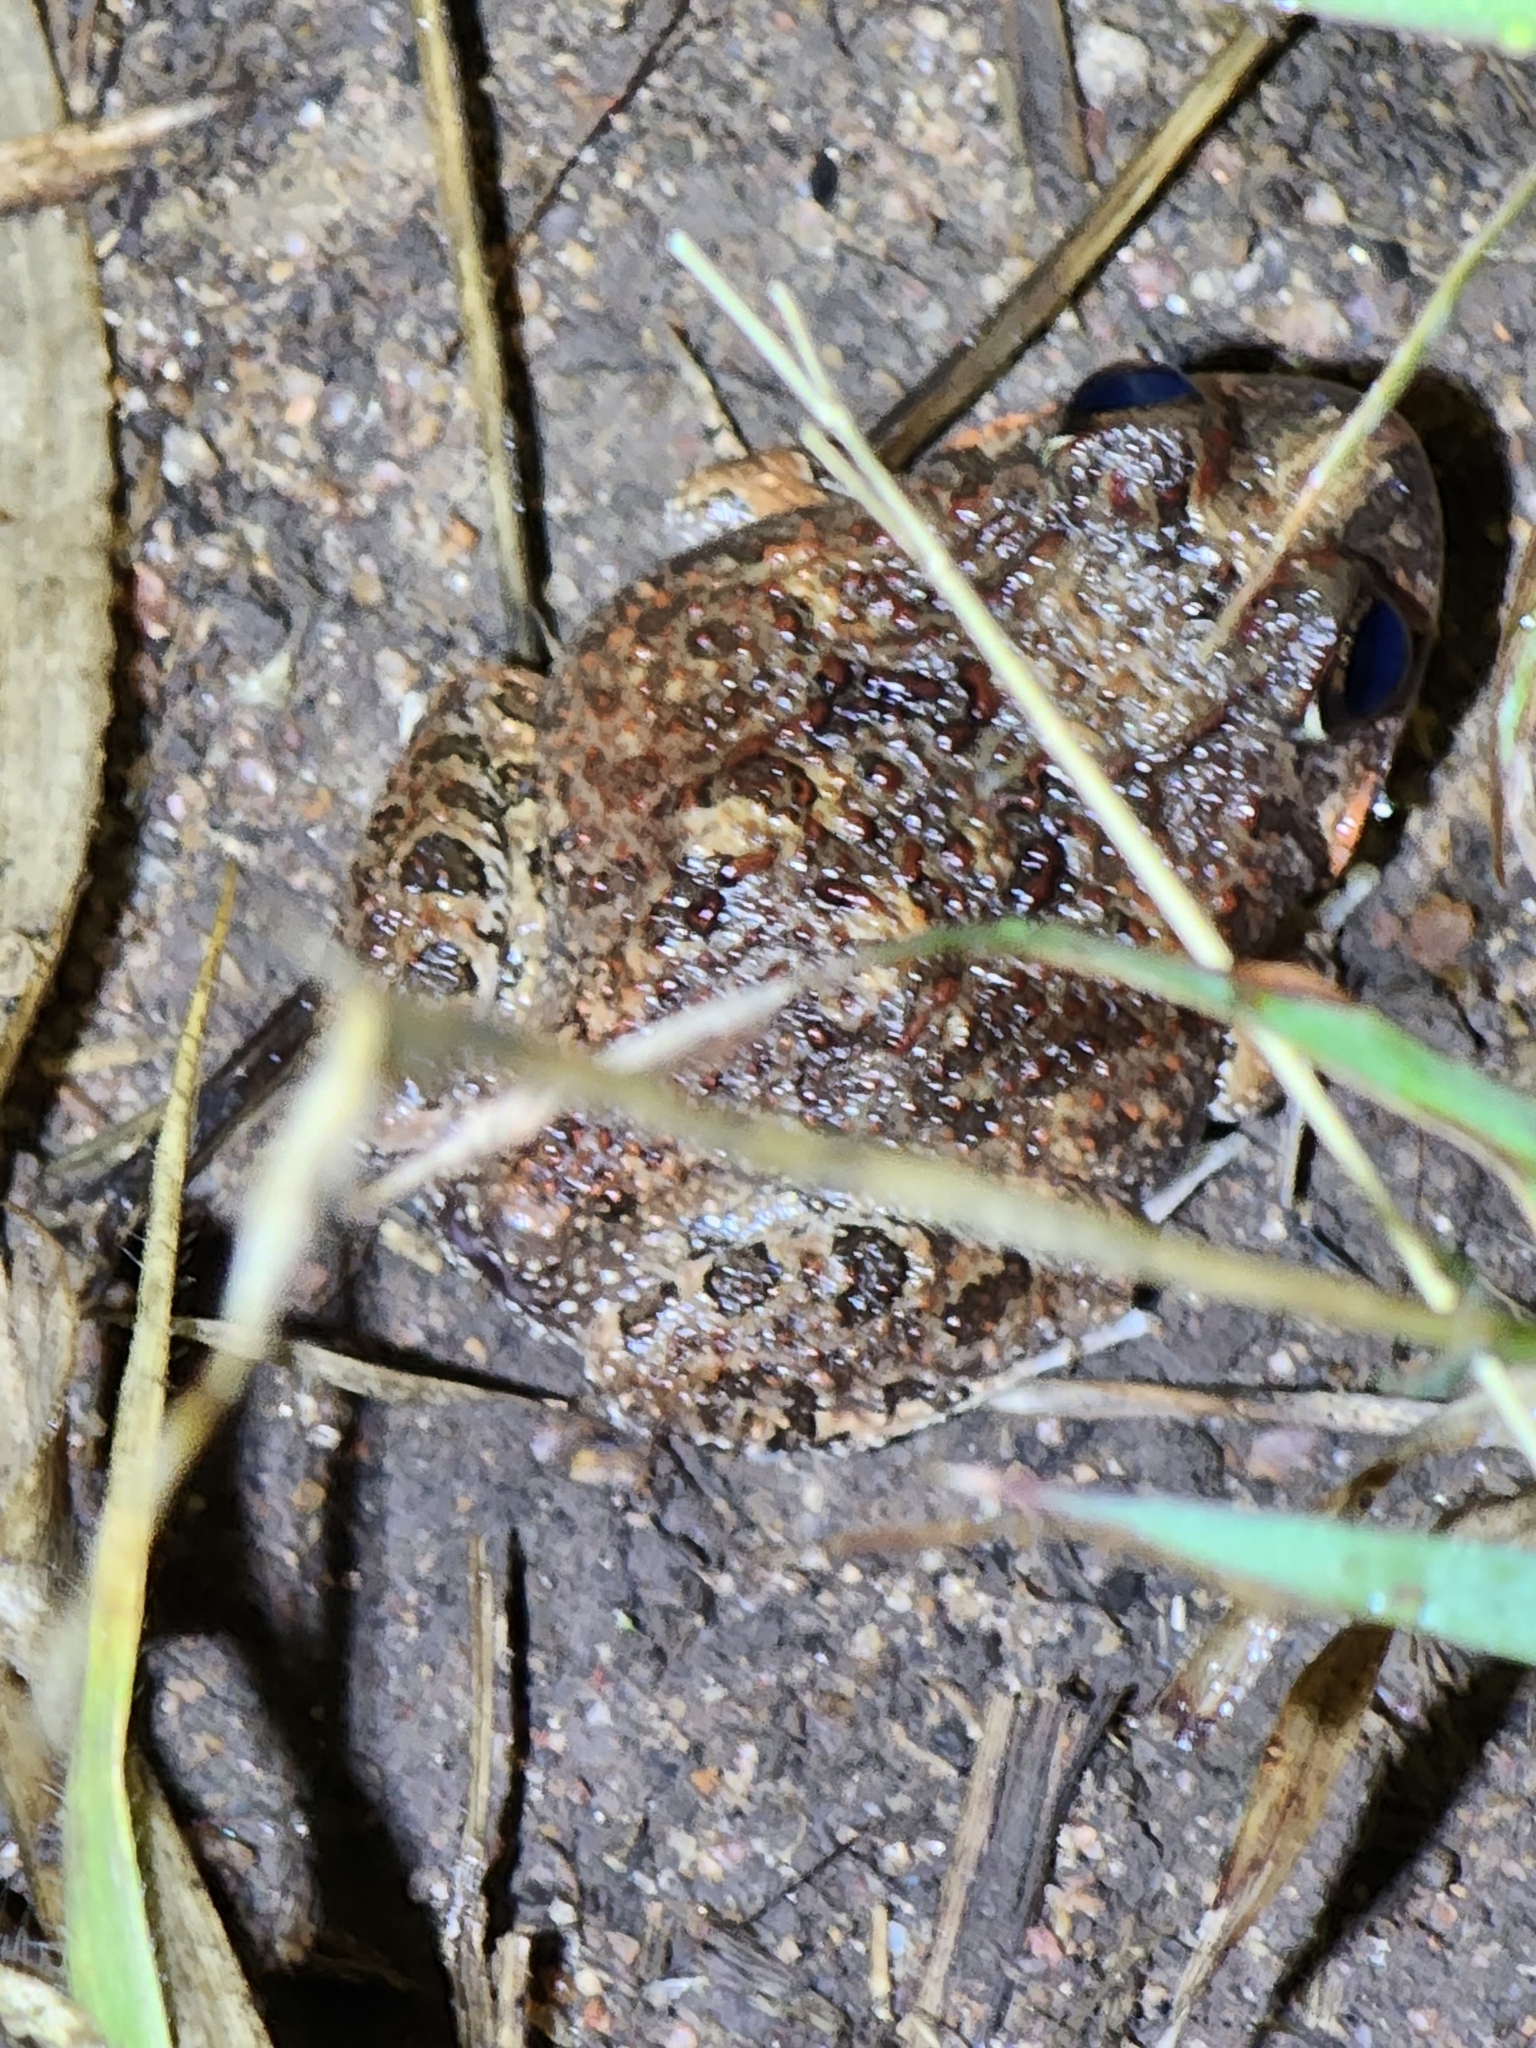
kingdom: Animalia
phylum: Chordata
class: Amphibia
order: Anura
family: Limnodynastidae
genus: Platyplectrum
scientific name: Platyplectrum ornatum
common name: Ornate burrowing frog
